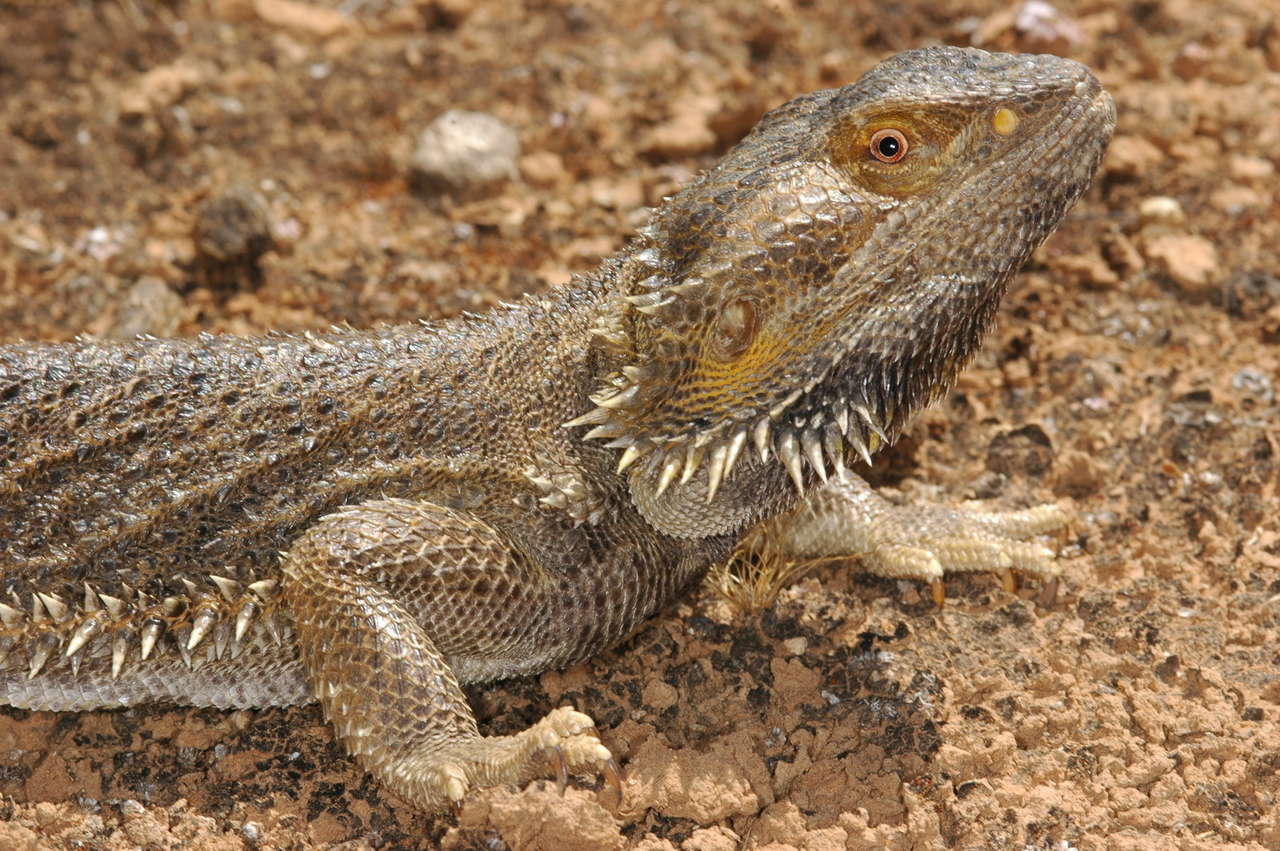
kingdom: Animalia
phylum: Chordata
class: Squamata
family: Agamidae
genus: Pogona
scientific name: Pogona vitticeps
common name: Central bearded dragon
